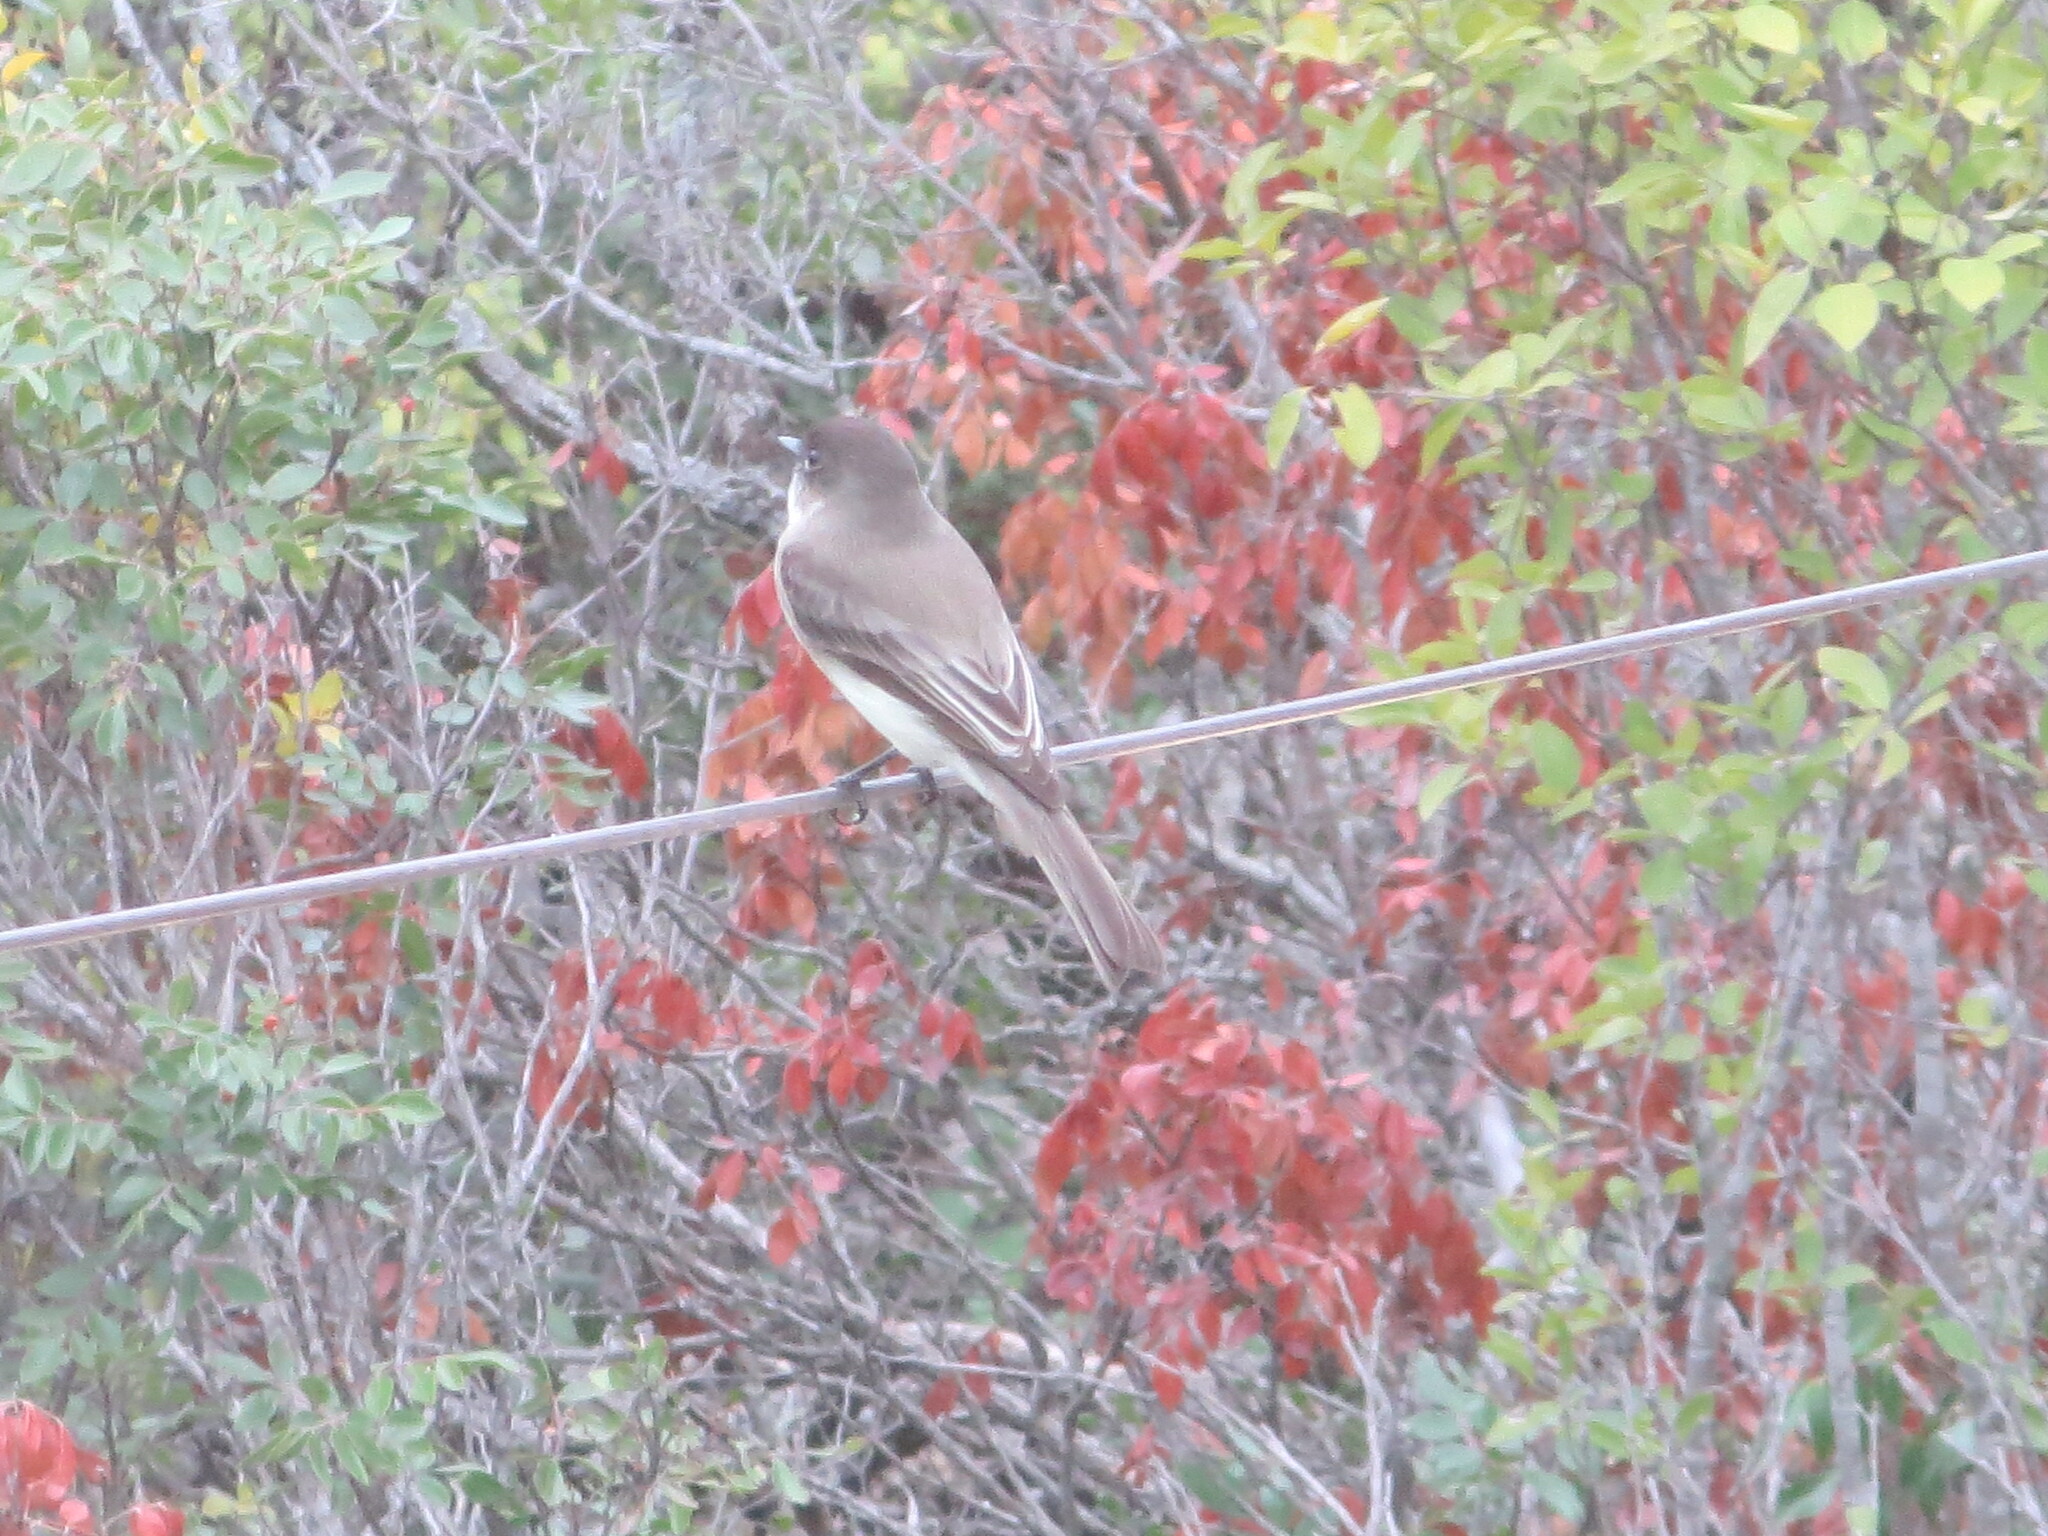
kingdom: Animalia
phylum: Chordata
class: Aves
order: Passeriformes
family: Tyrannidae
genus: Sayornis
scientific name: Sayornis phoebe
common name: Eastern phoebe
